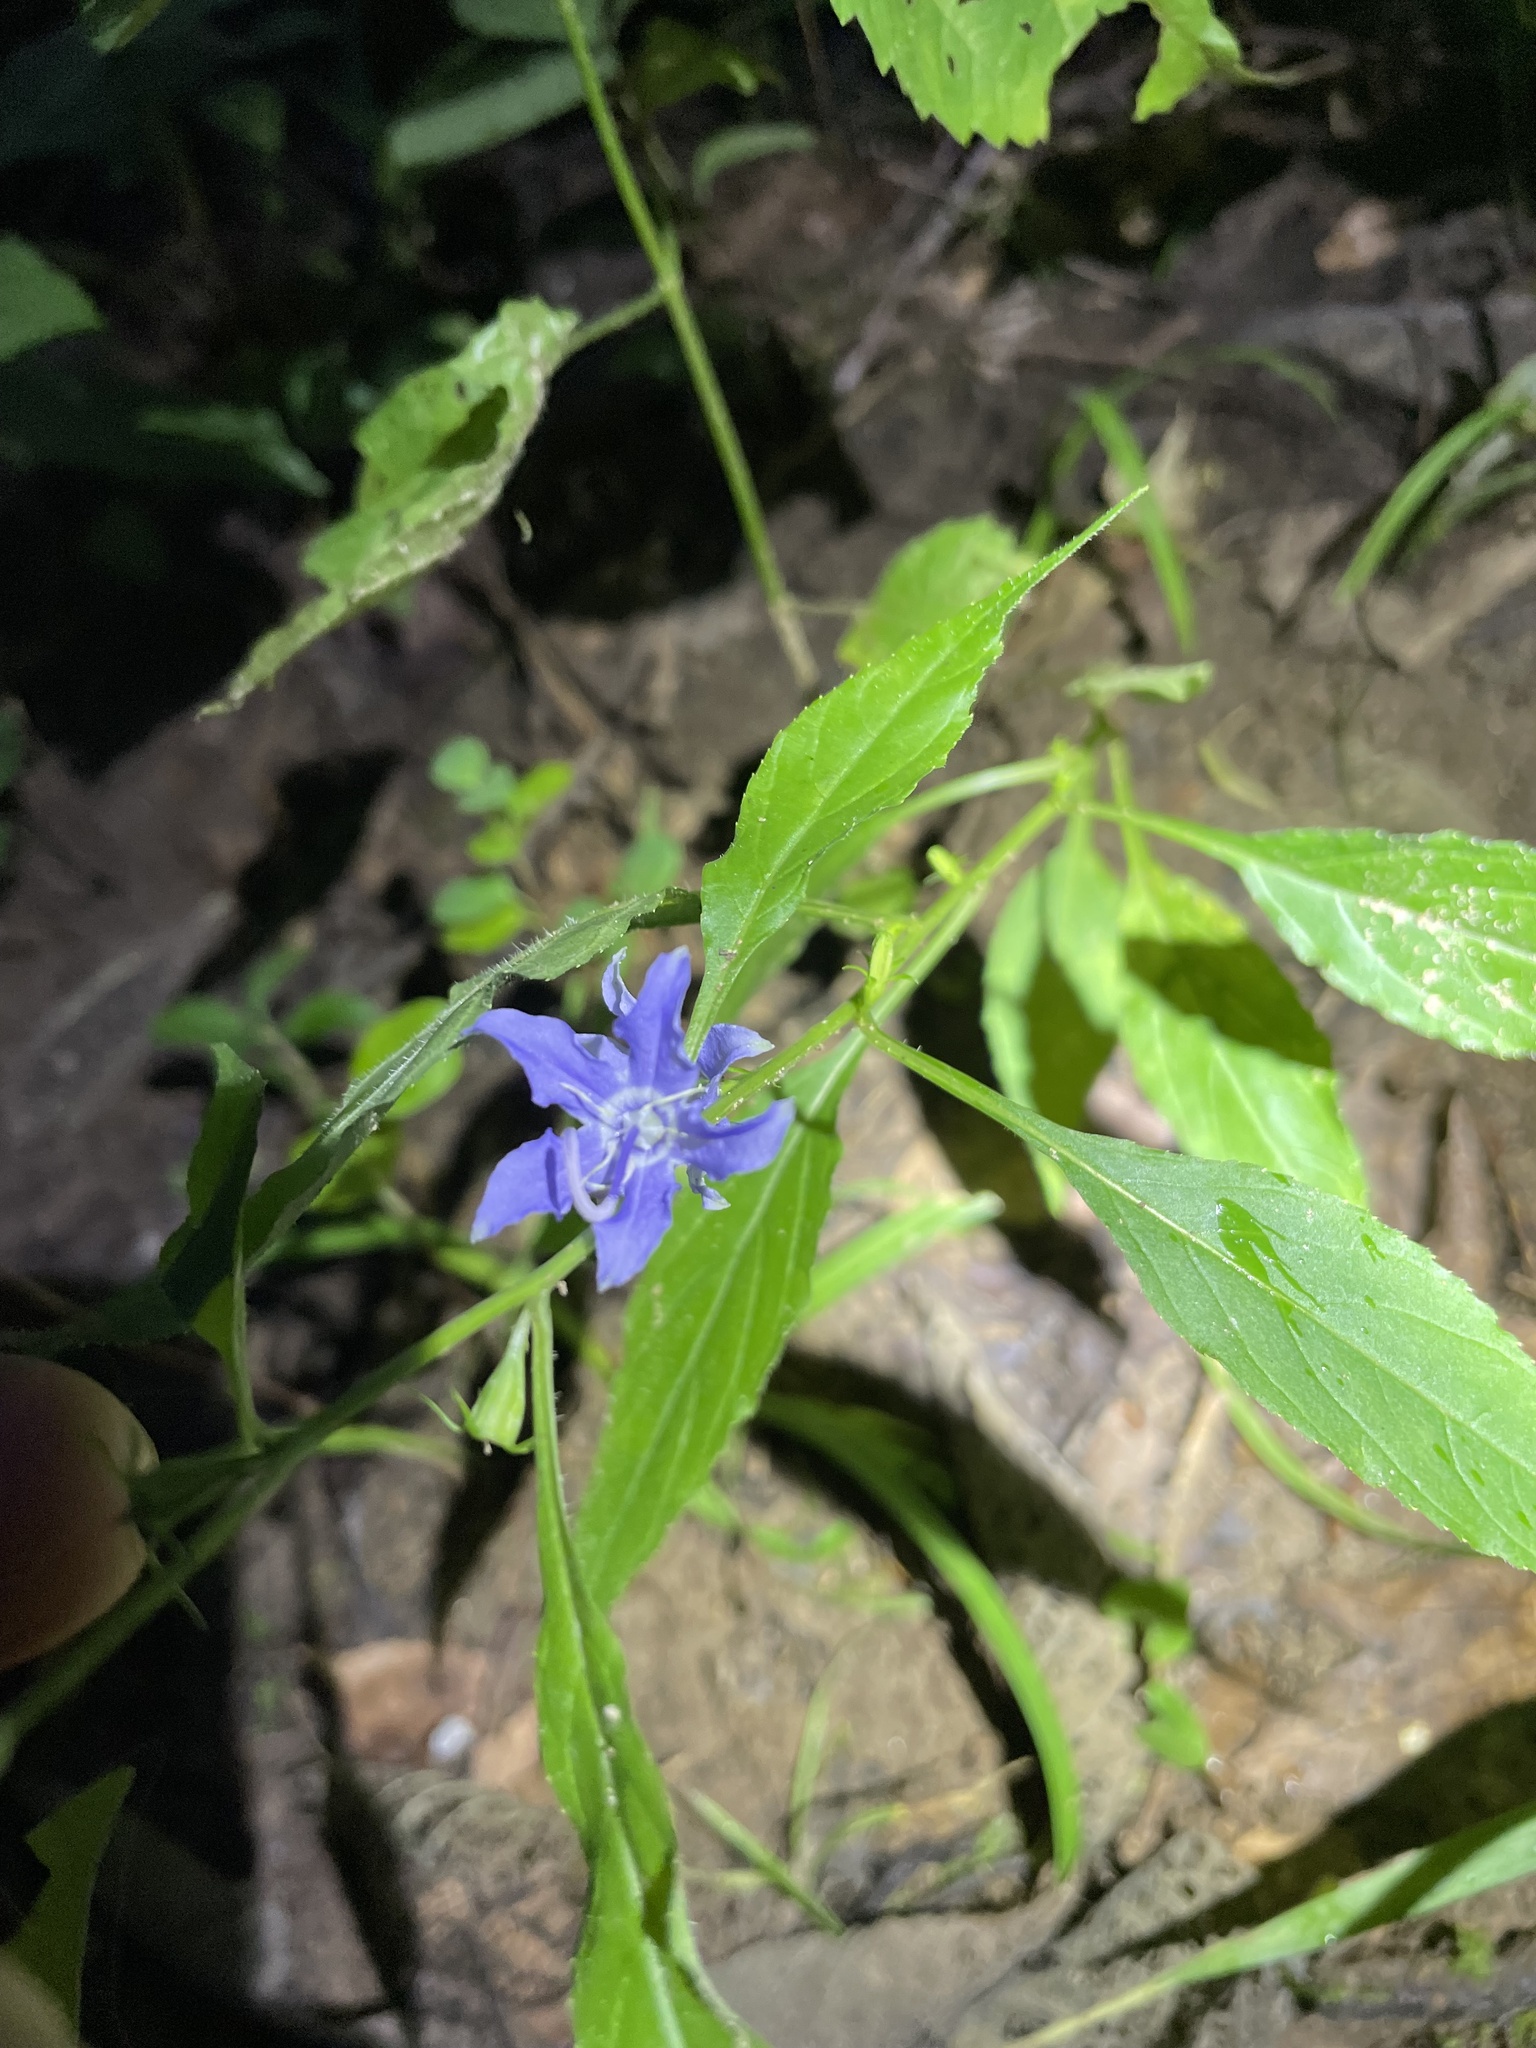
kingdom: Plantae
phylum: Tracheophyta
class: Magnoliopsida
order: Asterales
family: Campanulaceae
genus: Campanulastrum
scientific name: Campanulastrum americanum
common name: American bellflower
